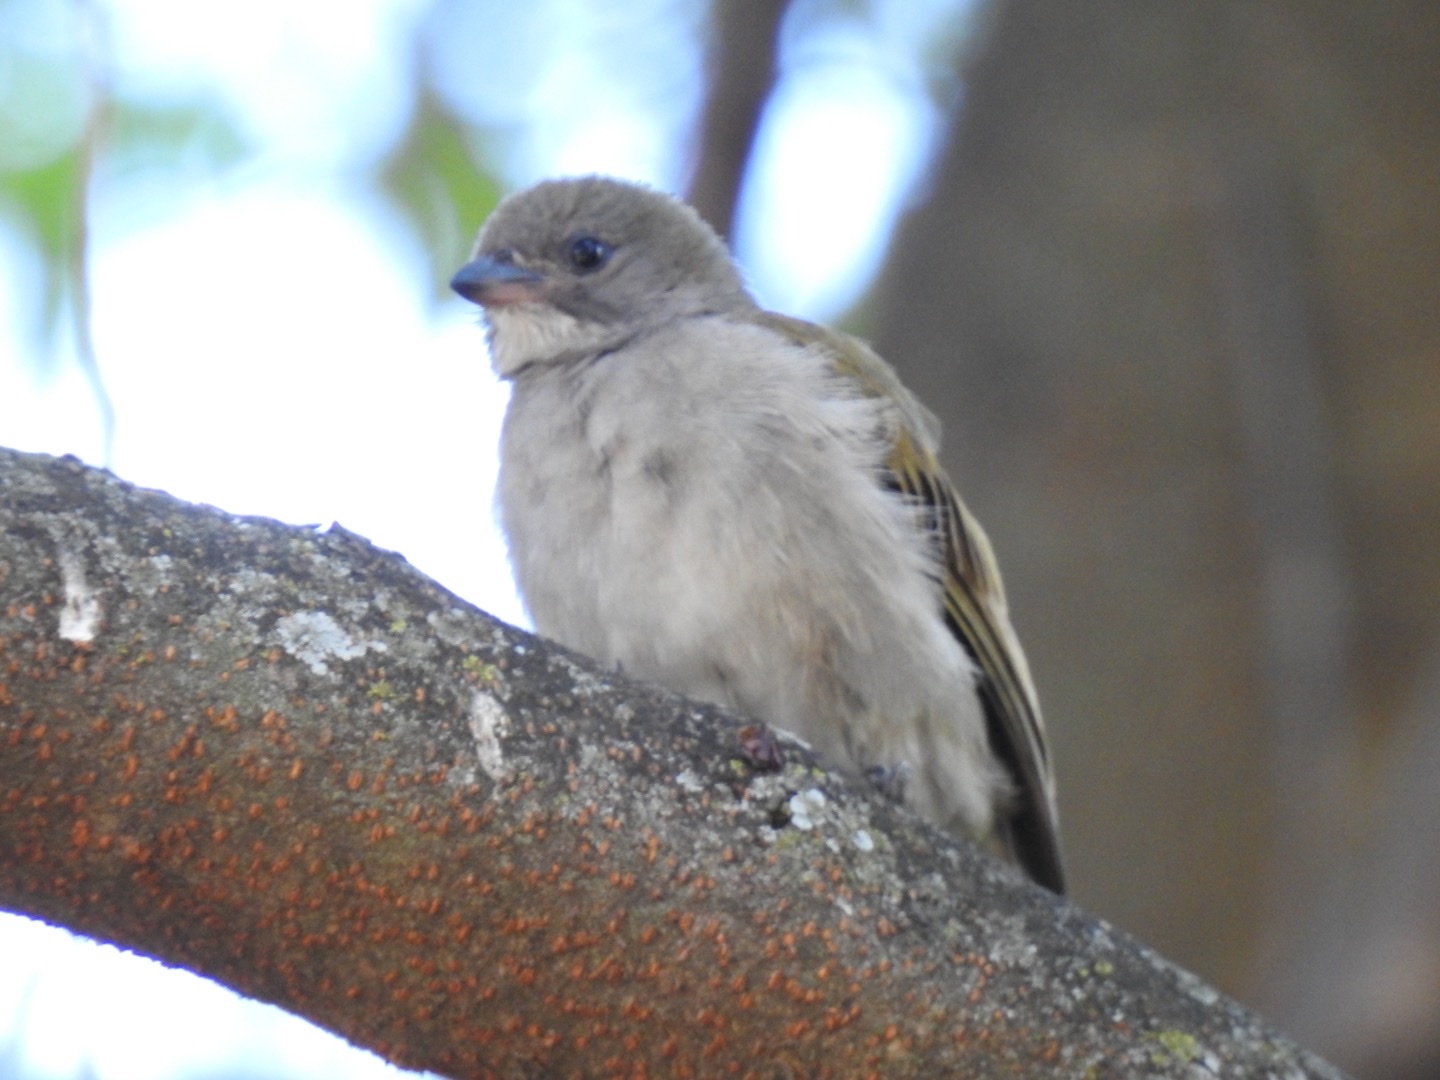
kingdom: Animalia
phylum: Chordata
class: Aves
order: Piciformes
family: Indicatoridae
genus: Indicator
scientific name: Indicator minor
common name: Lesser honeyguide
